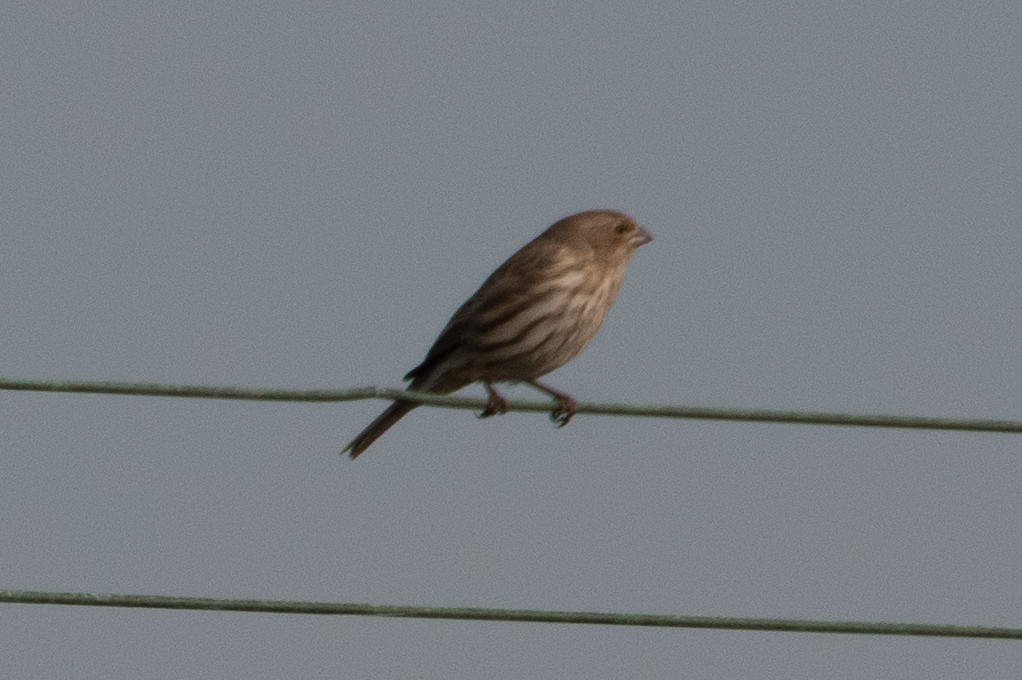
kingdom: Animalia
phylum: Chordata
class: Aves
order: Passeriformes
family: Fringillidae
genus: Haemorhous
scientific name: Haemorhous mexicanus
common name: House finch
